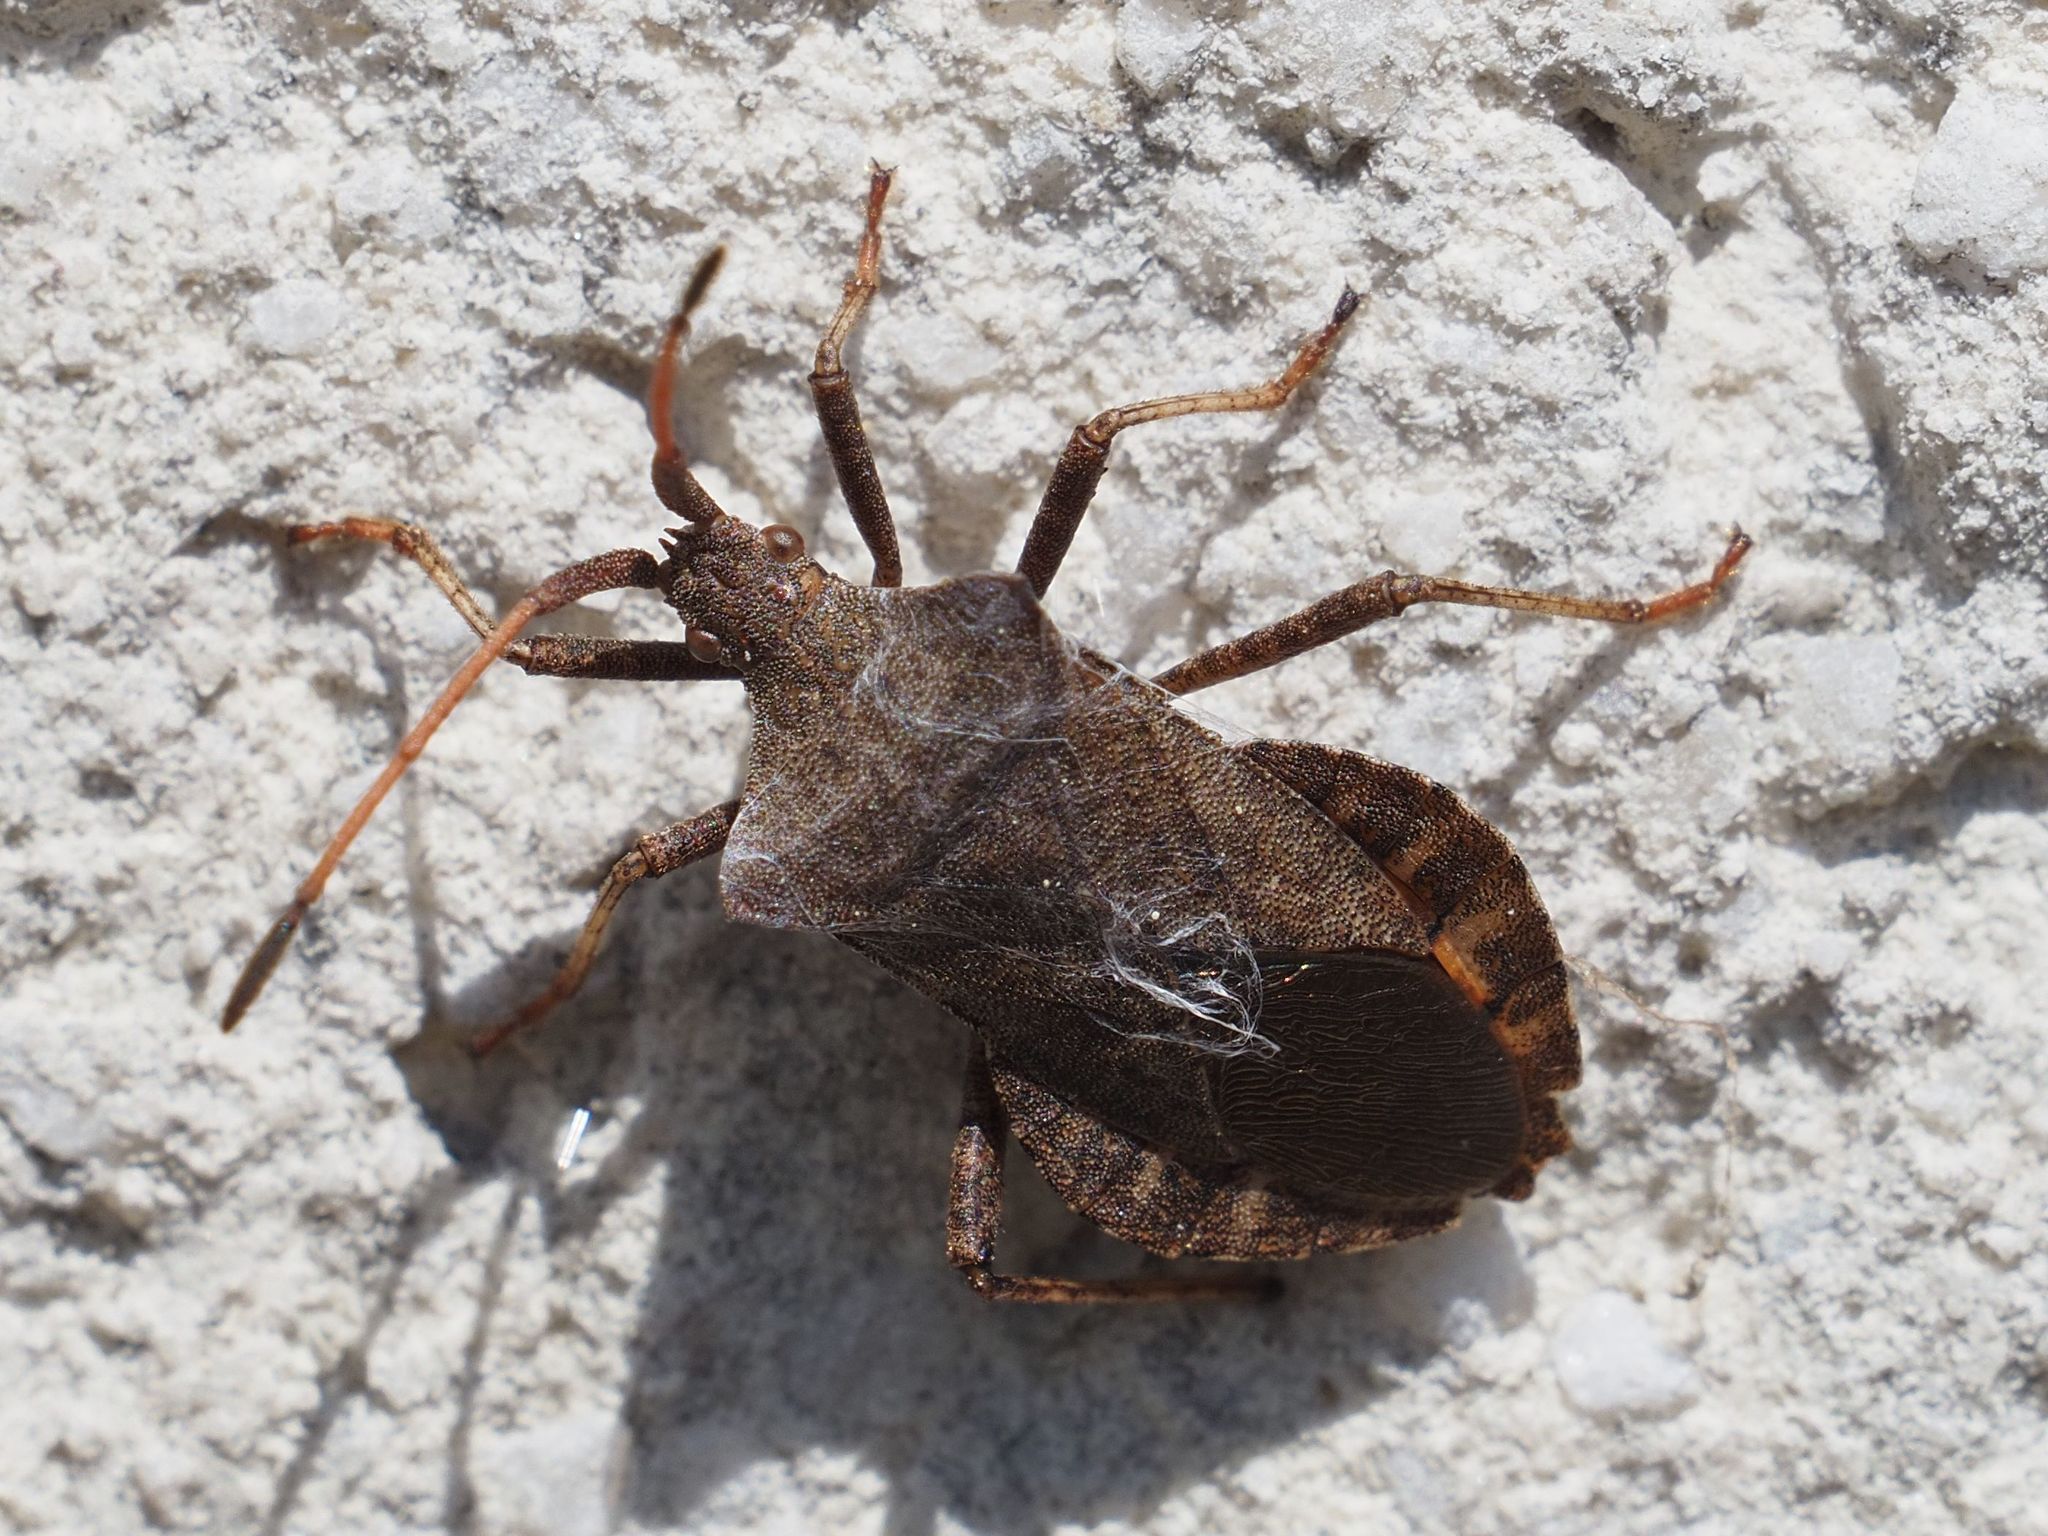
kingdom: Animalia
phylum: Arthropoda
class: Insecta
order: Hemiptera
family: Coreidae
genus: Coreus
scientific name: Coreus marginatus
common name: Dock bug
